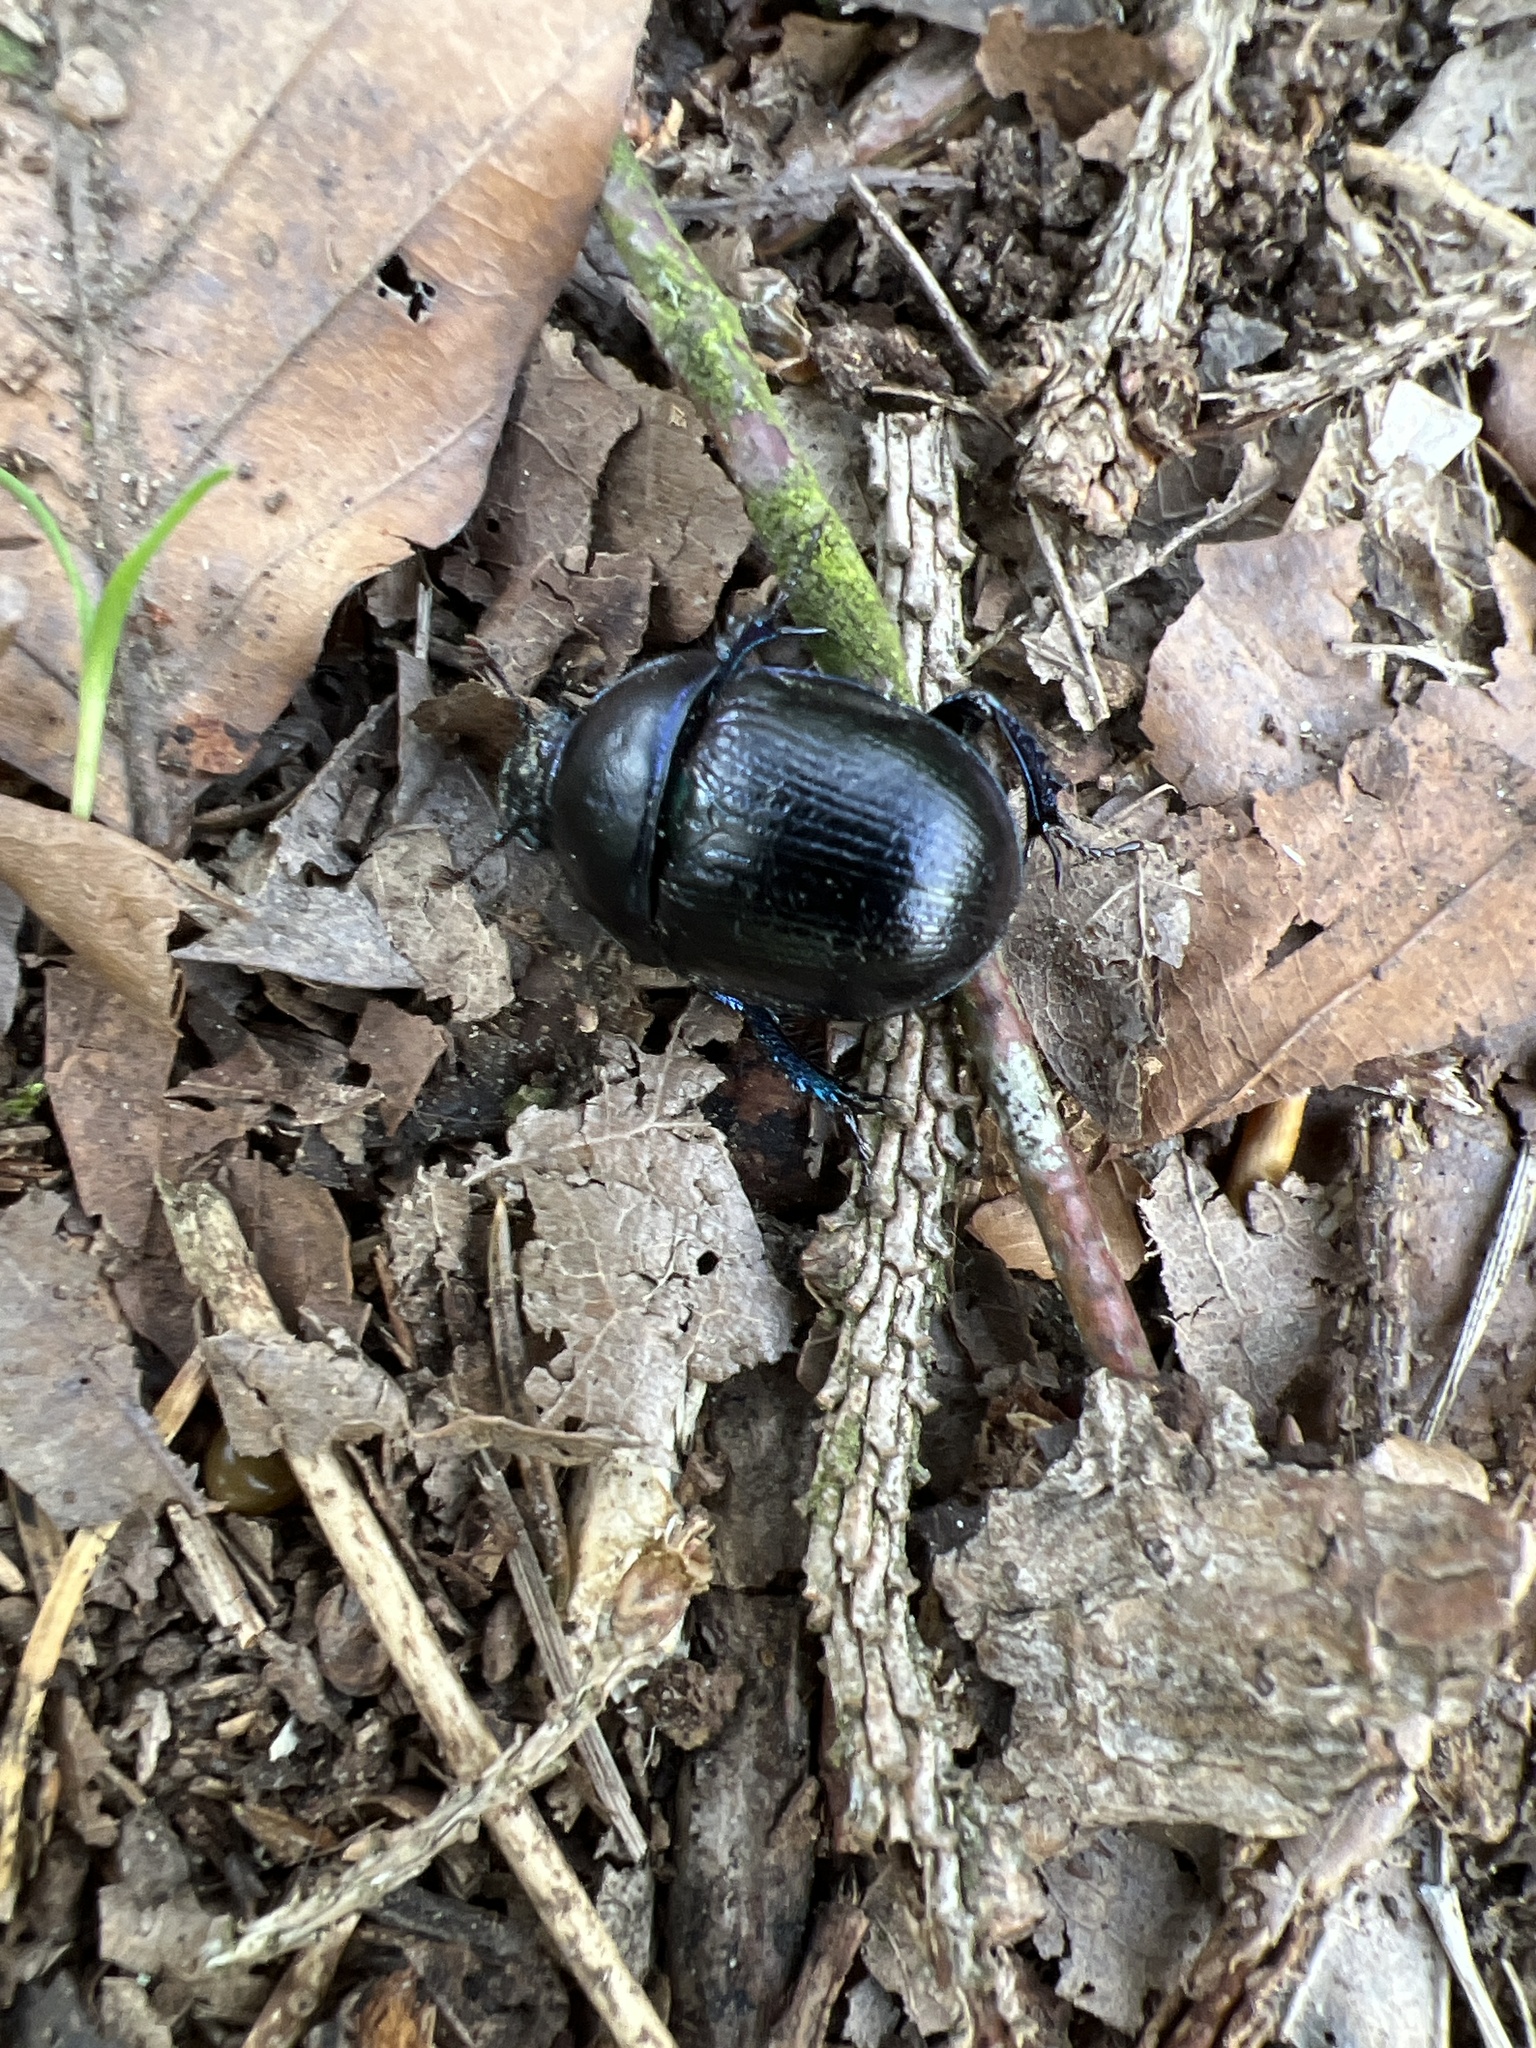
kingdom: Animalia
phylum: Arthropoda
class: Insecta
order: Coleoptera
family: Geotrupidae
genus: Anoplotrupes
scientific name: Anoplotrupes stercorosus
